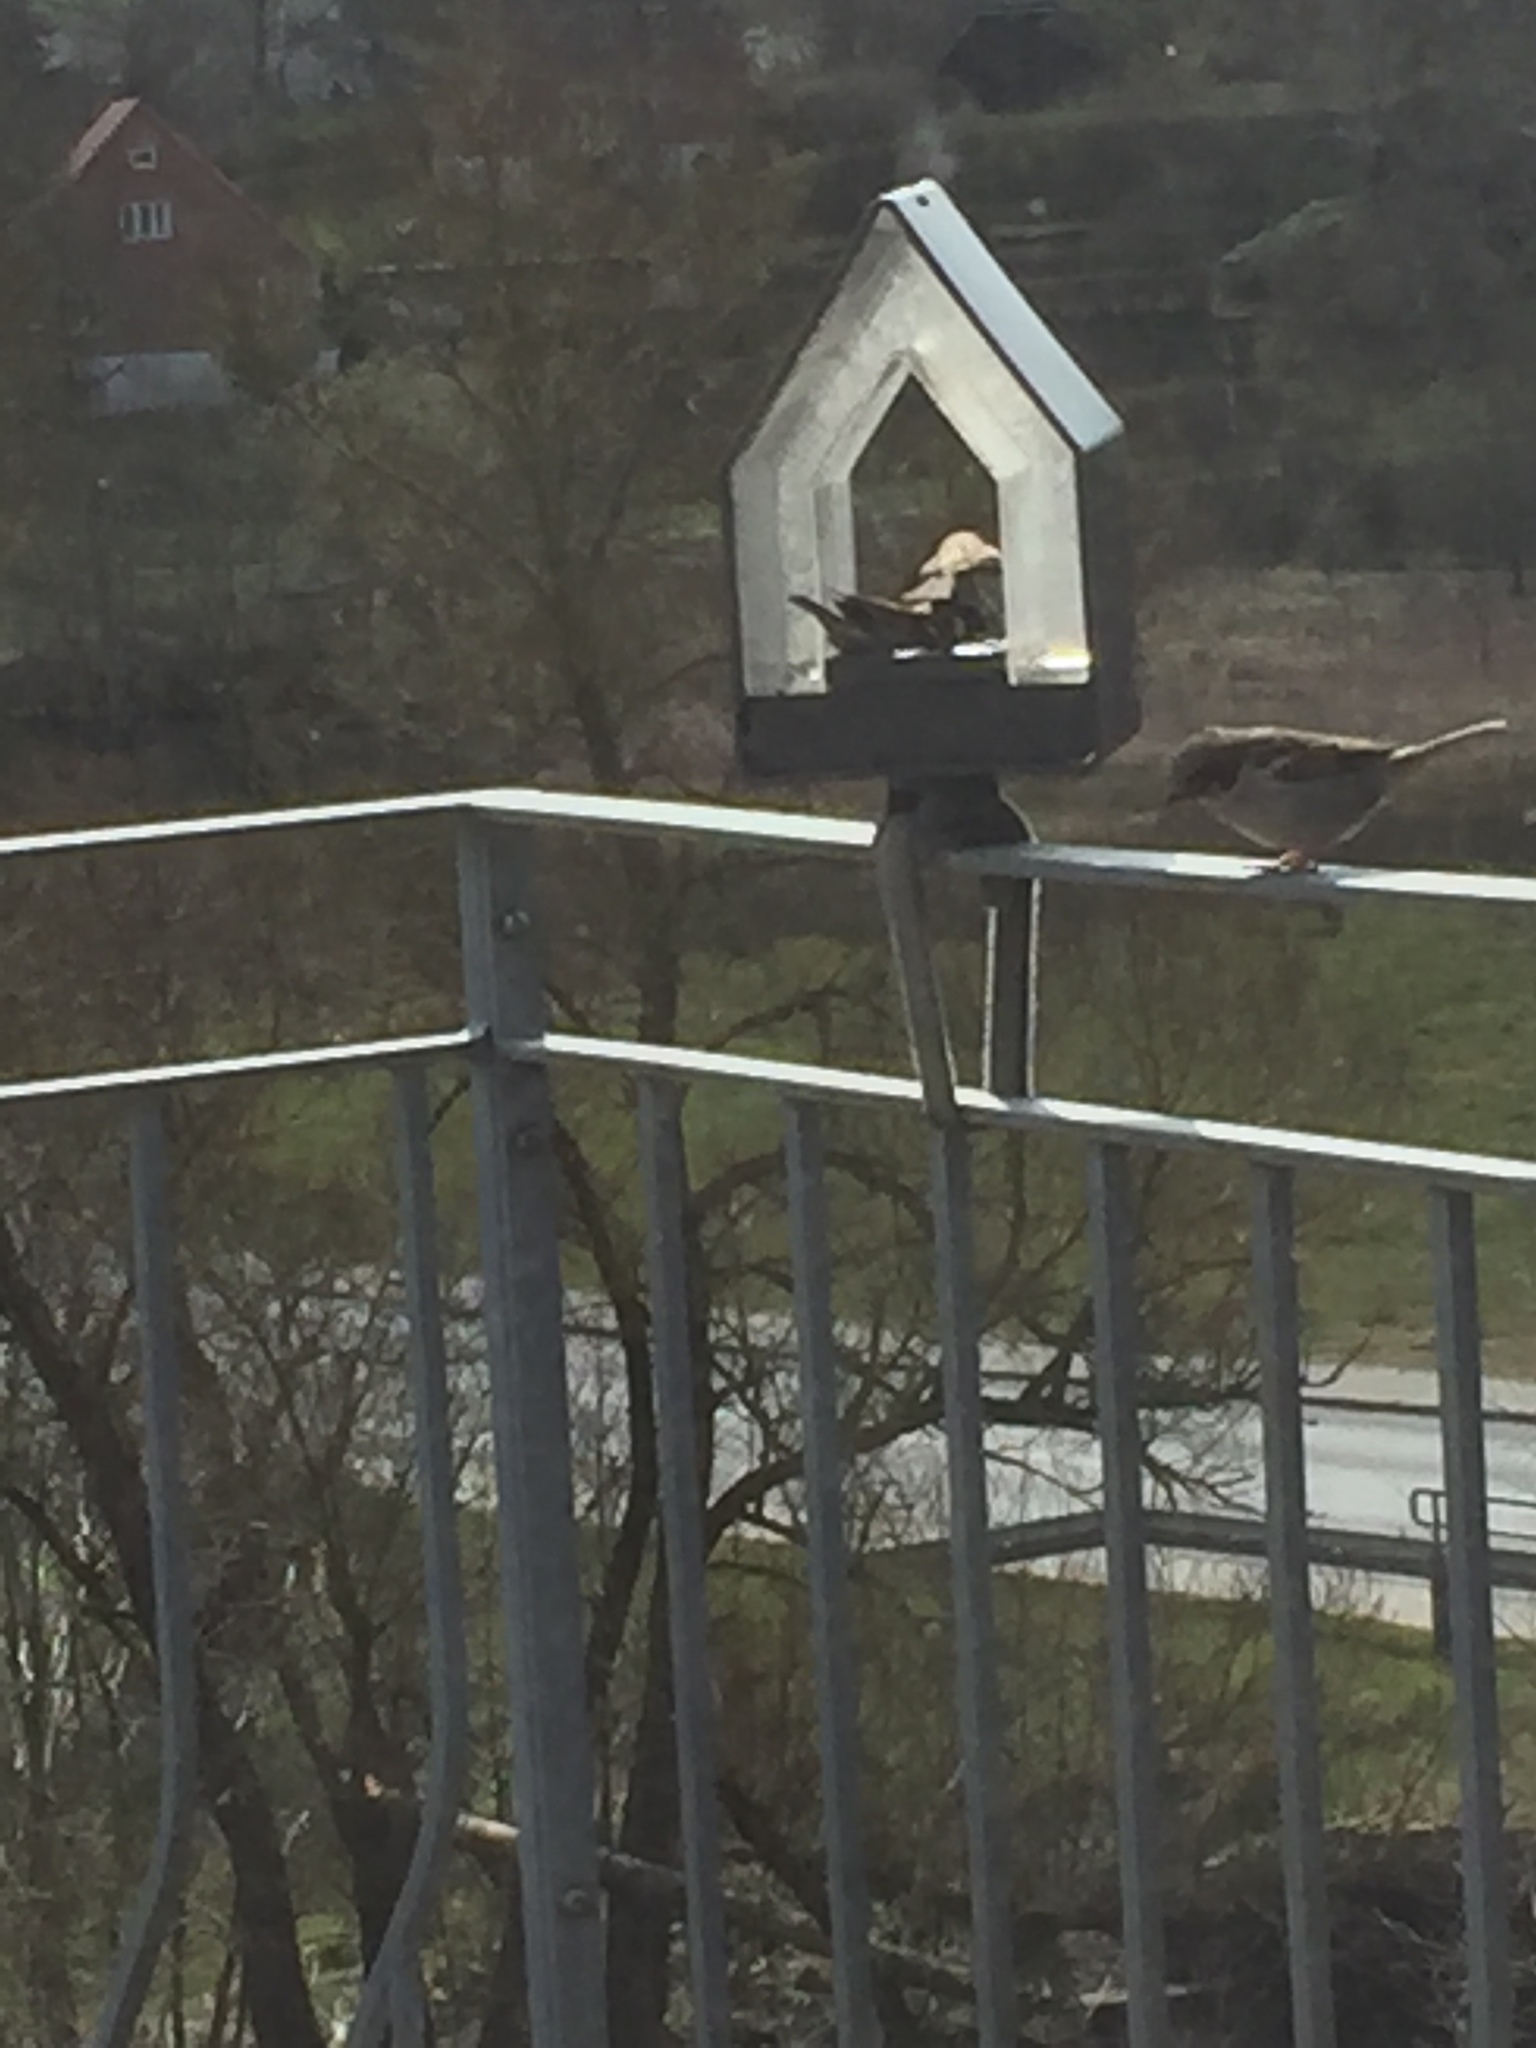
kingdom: Animalia
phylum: Chordata
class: Aves
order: Passeriformes
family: Passeridae
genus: Passer
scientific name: Passer domesticus
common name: House sparrow
